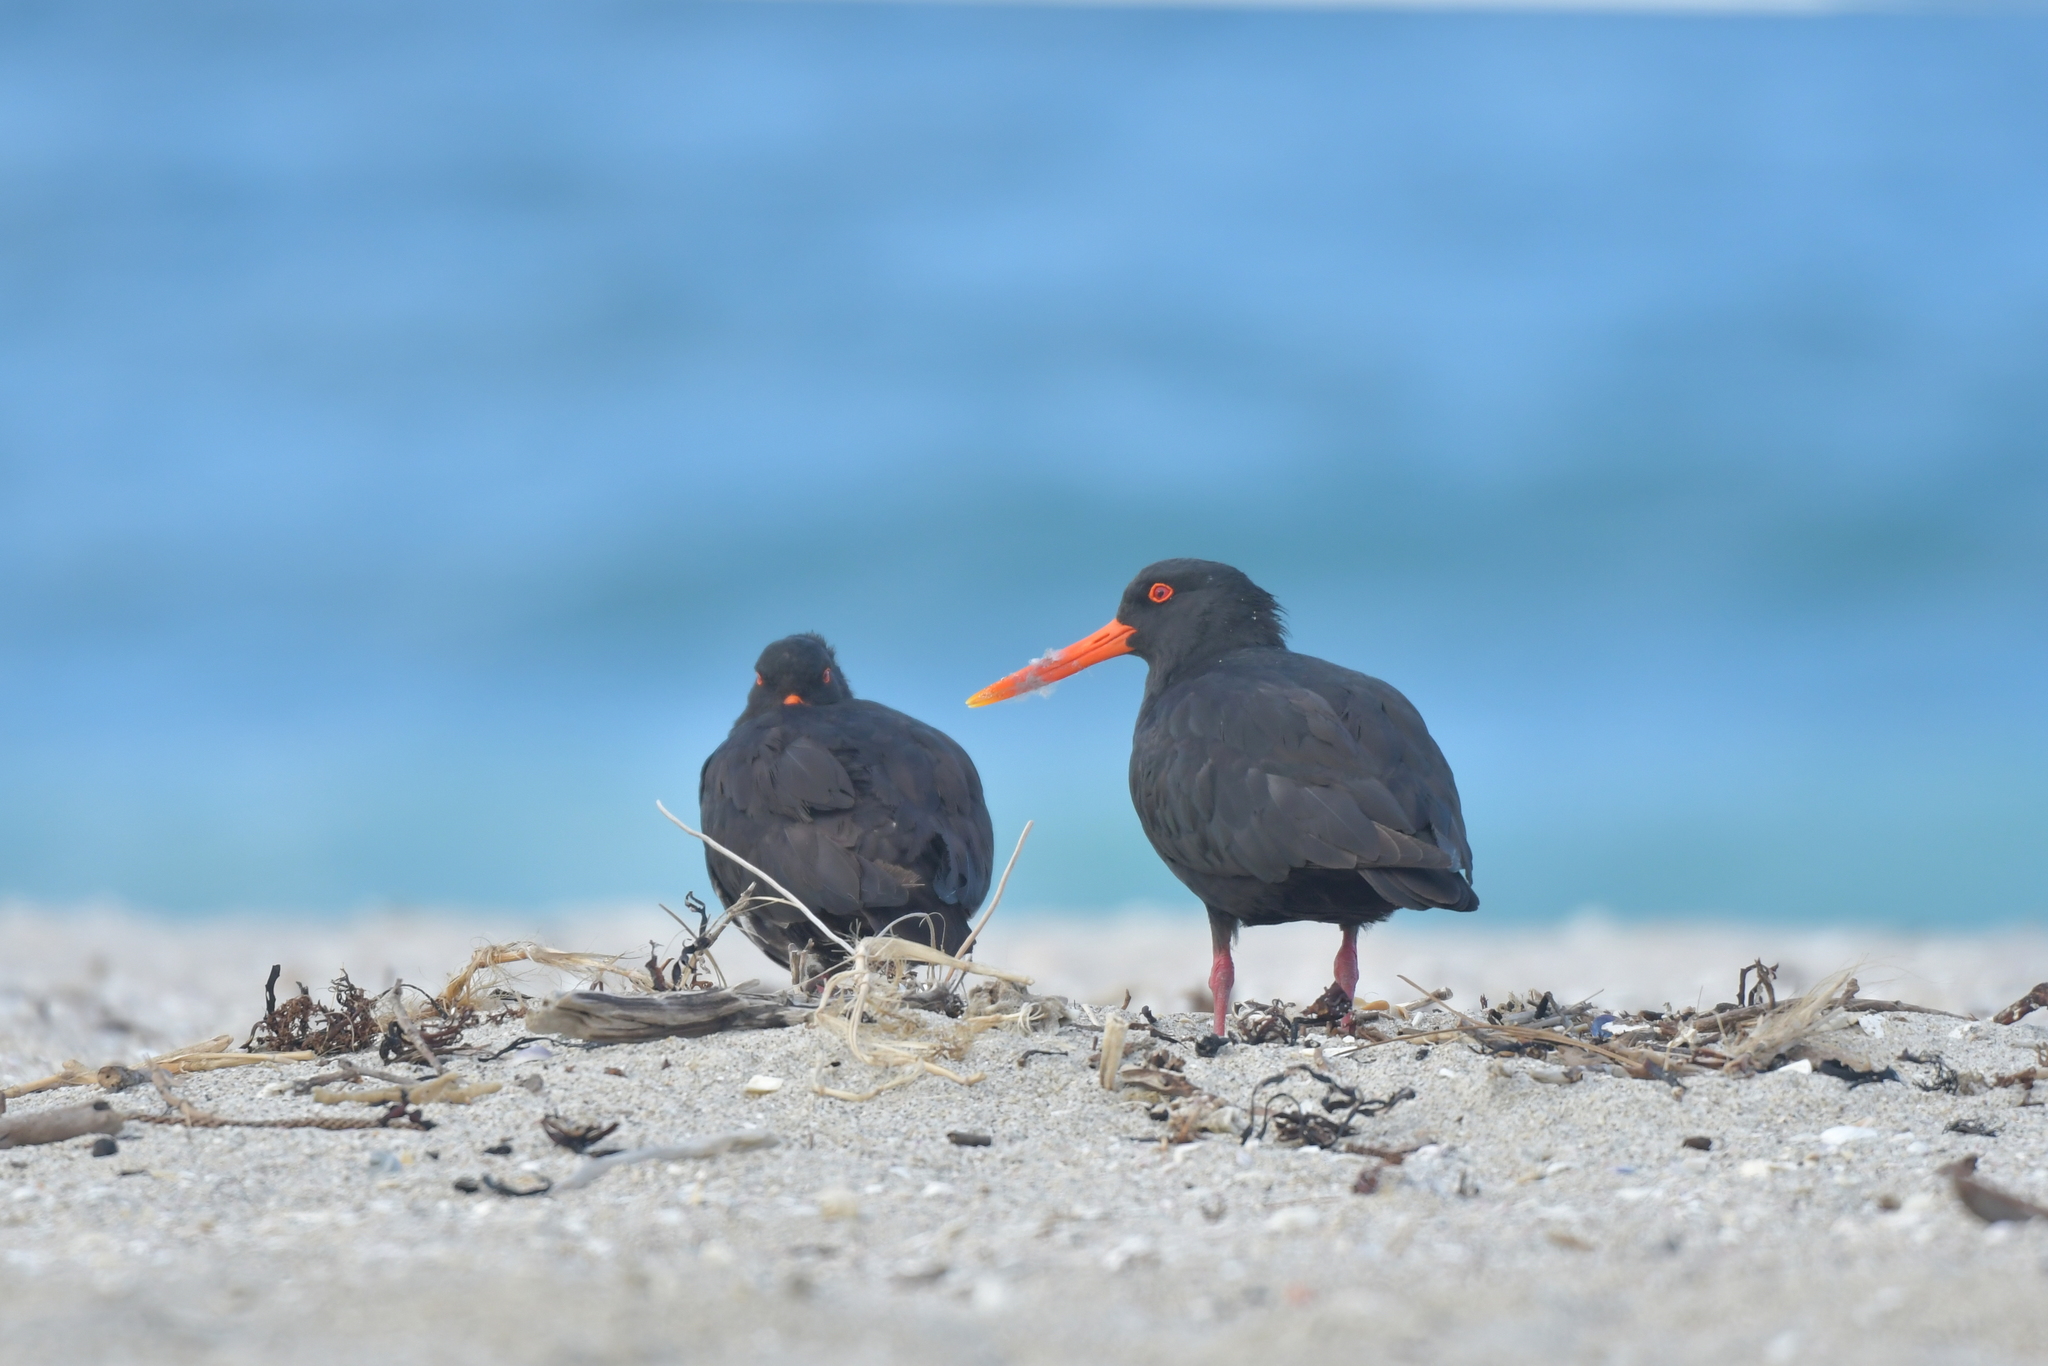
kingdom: Animalia
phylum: Chordata
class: Aves
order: Charadriiformes
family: Haematopodidae
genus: Haematopus
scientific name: Haematopus unicolor
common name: Variable oystercatcher
